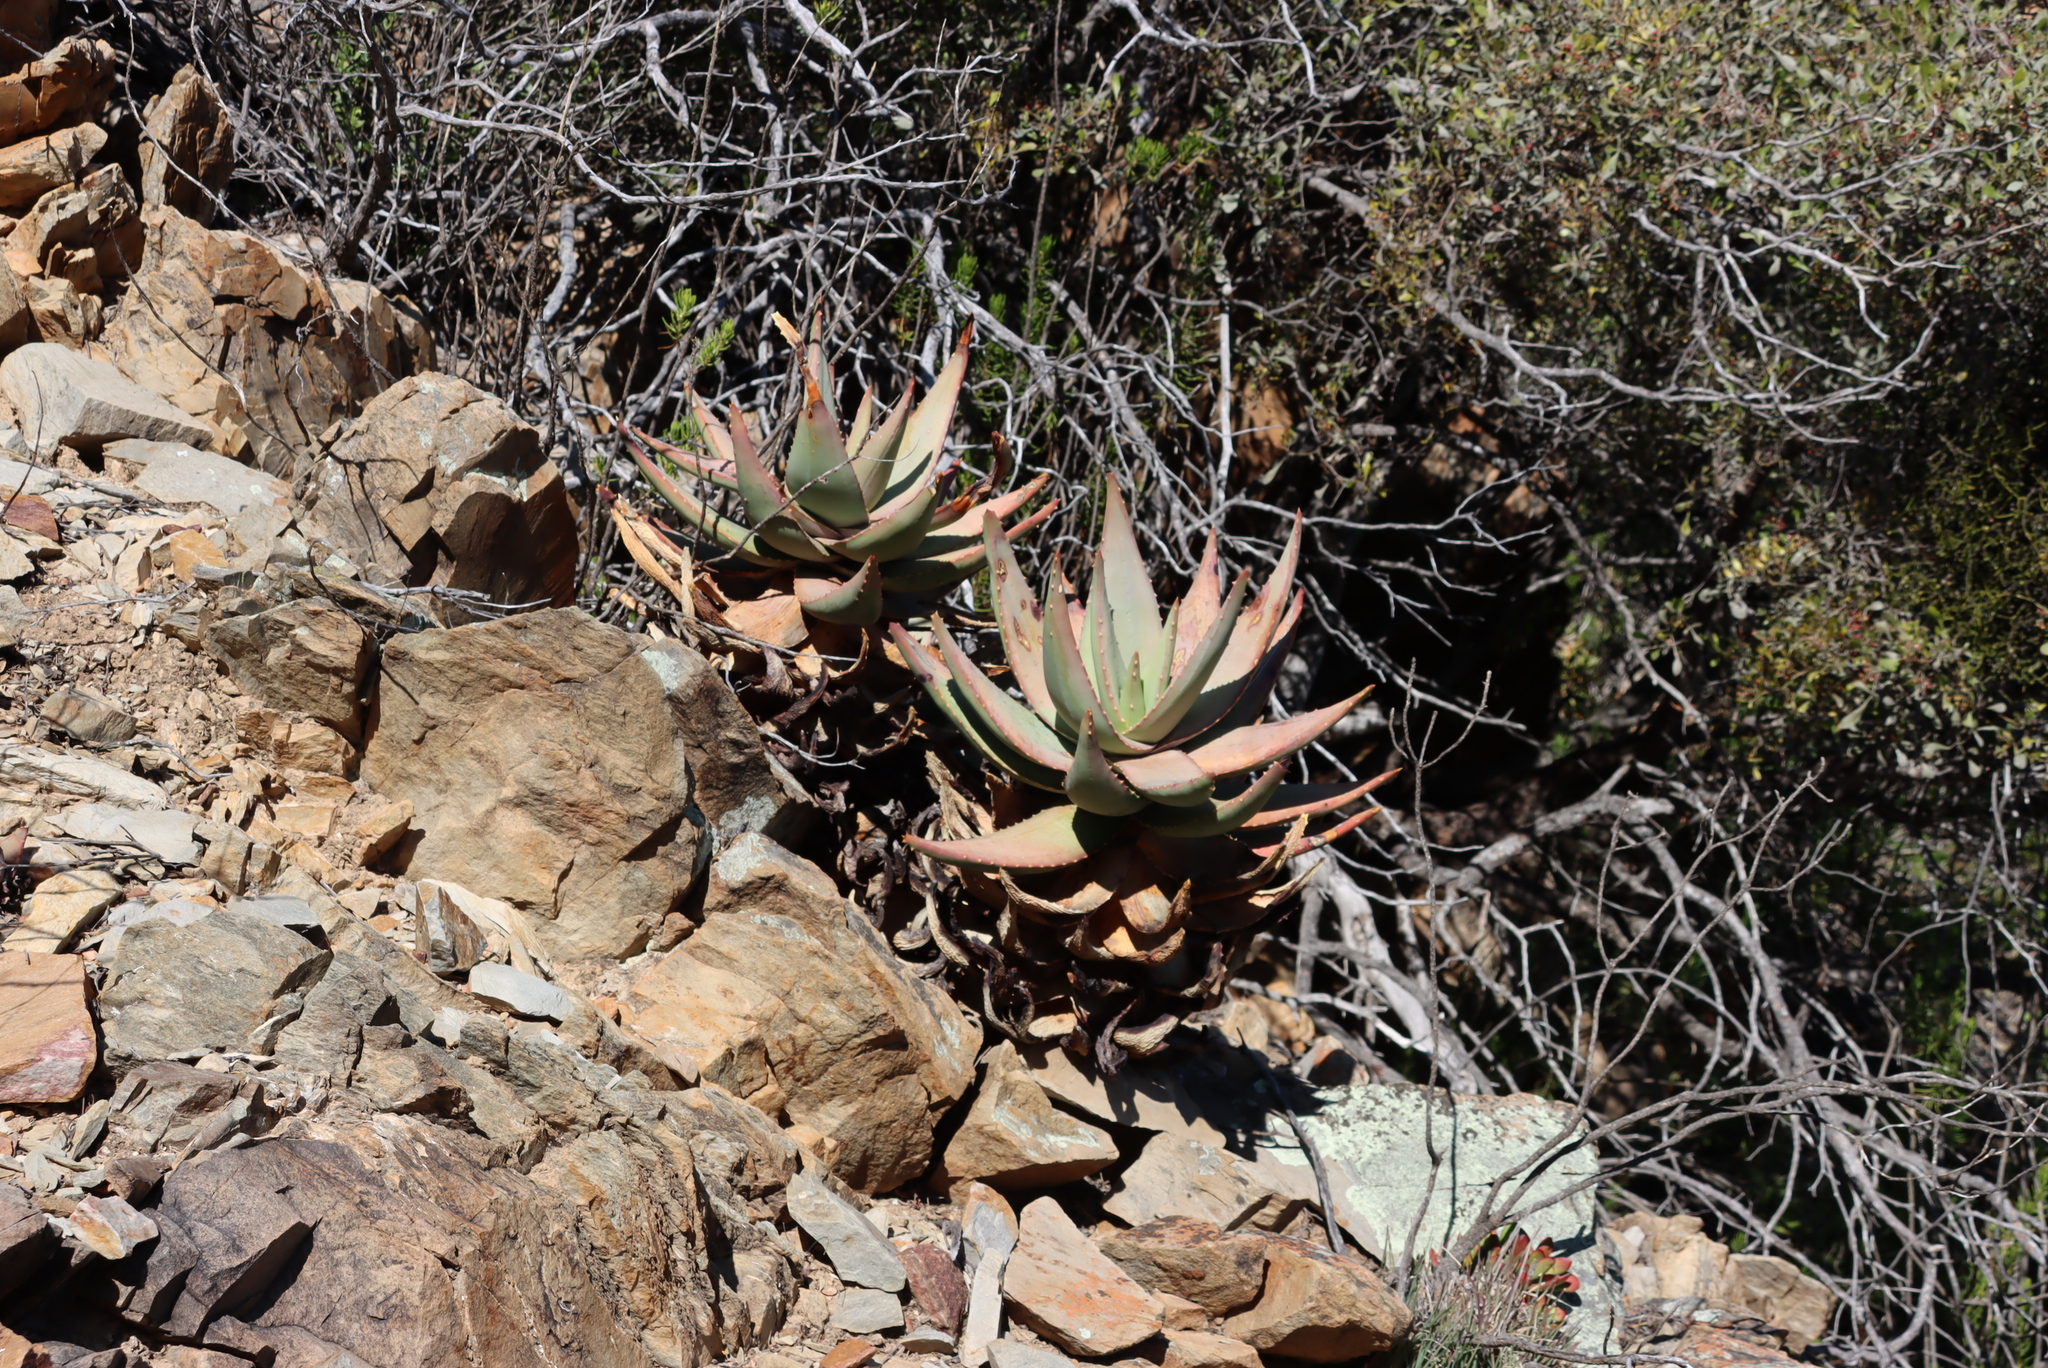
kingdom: Plantae
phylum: Tracheophyta
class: Liliopsida
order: Asparagales
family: Asphodelaceae
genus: Aloe
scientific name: Aloe ferox
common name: Bitter aloe
